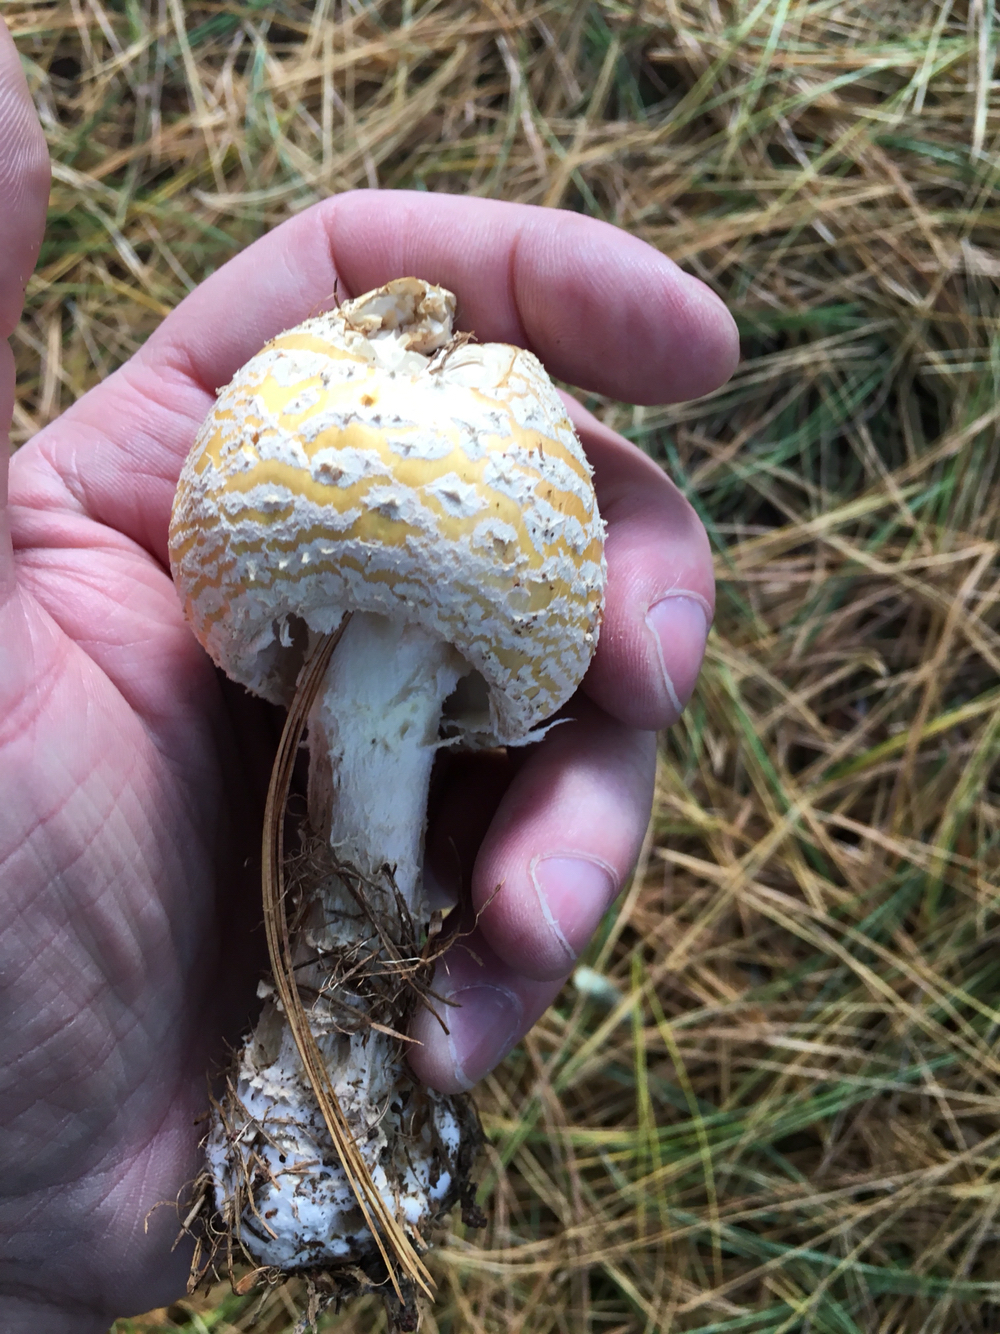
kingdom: Fungi
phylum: Basidiomycota
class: Agaricomycetes
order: Agaricales
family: Amanitaceae
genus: Amanita
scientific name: Amanita muscaria
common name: Fly agaric
